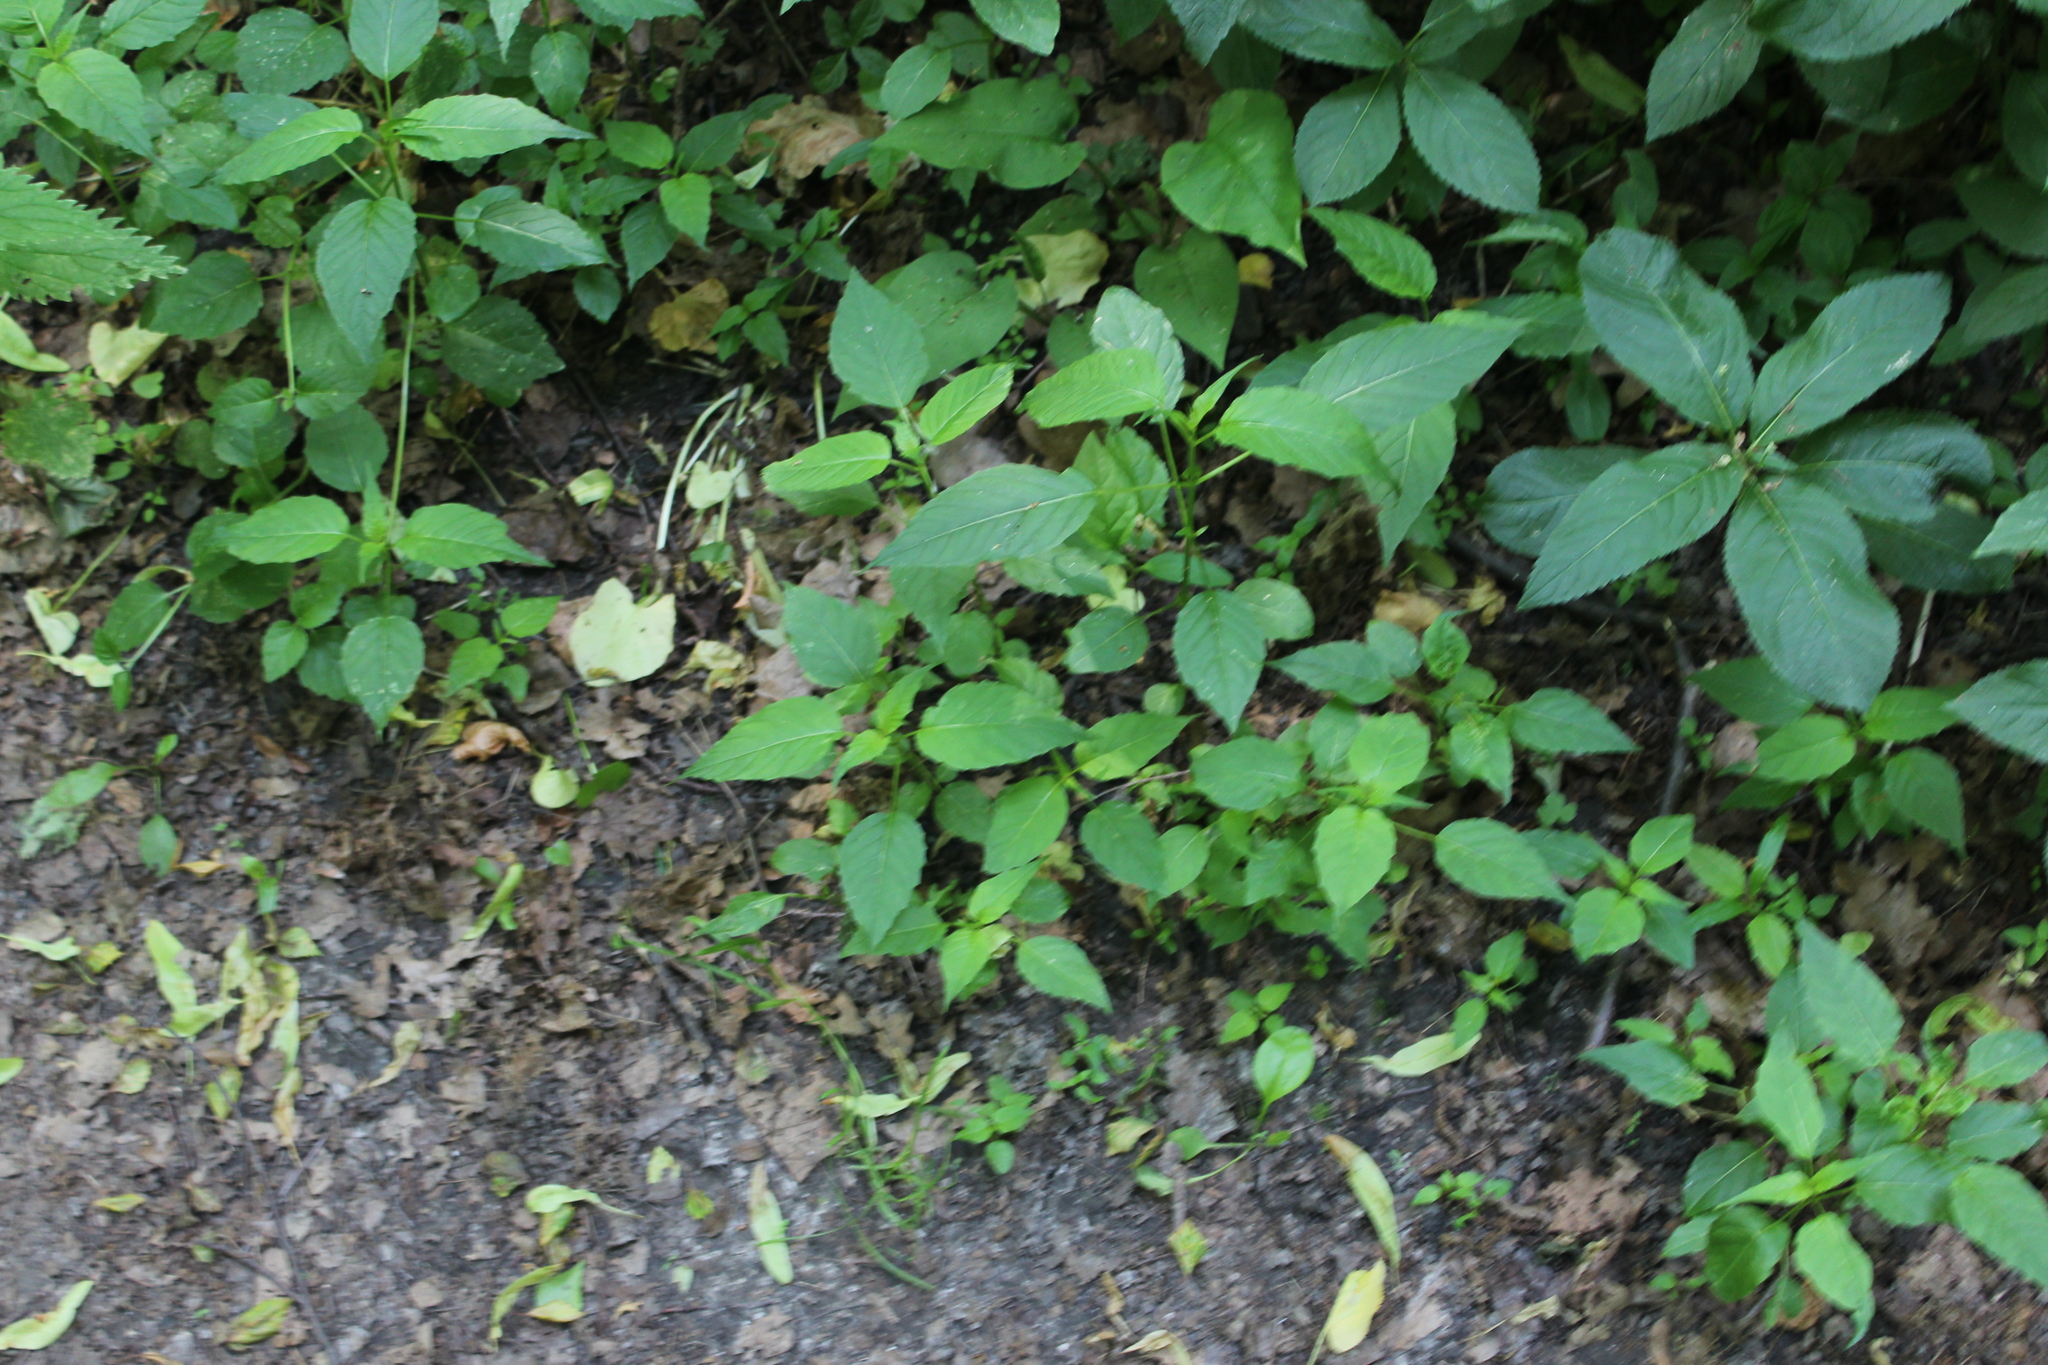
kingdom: Plantae
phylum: Tracheophyta
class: Magnoliopsida
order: Myrtales
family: Onagraceae
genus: Circaea
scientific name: Circaea lutetiana
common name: Enchanter's-nightshade
